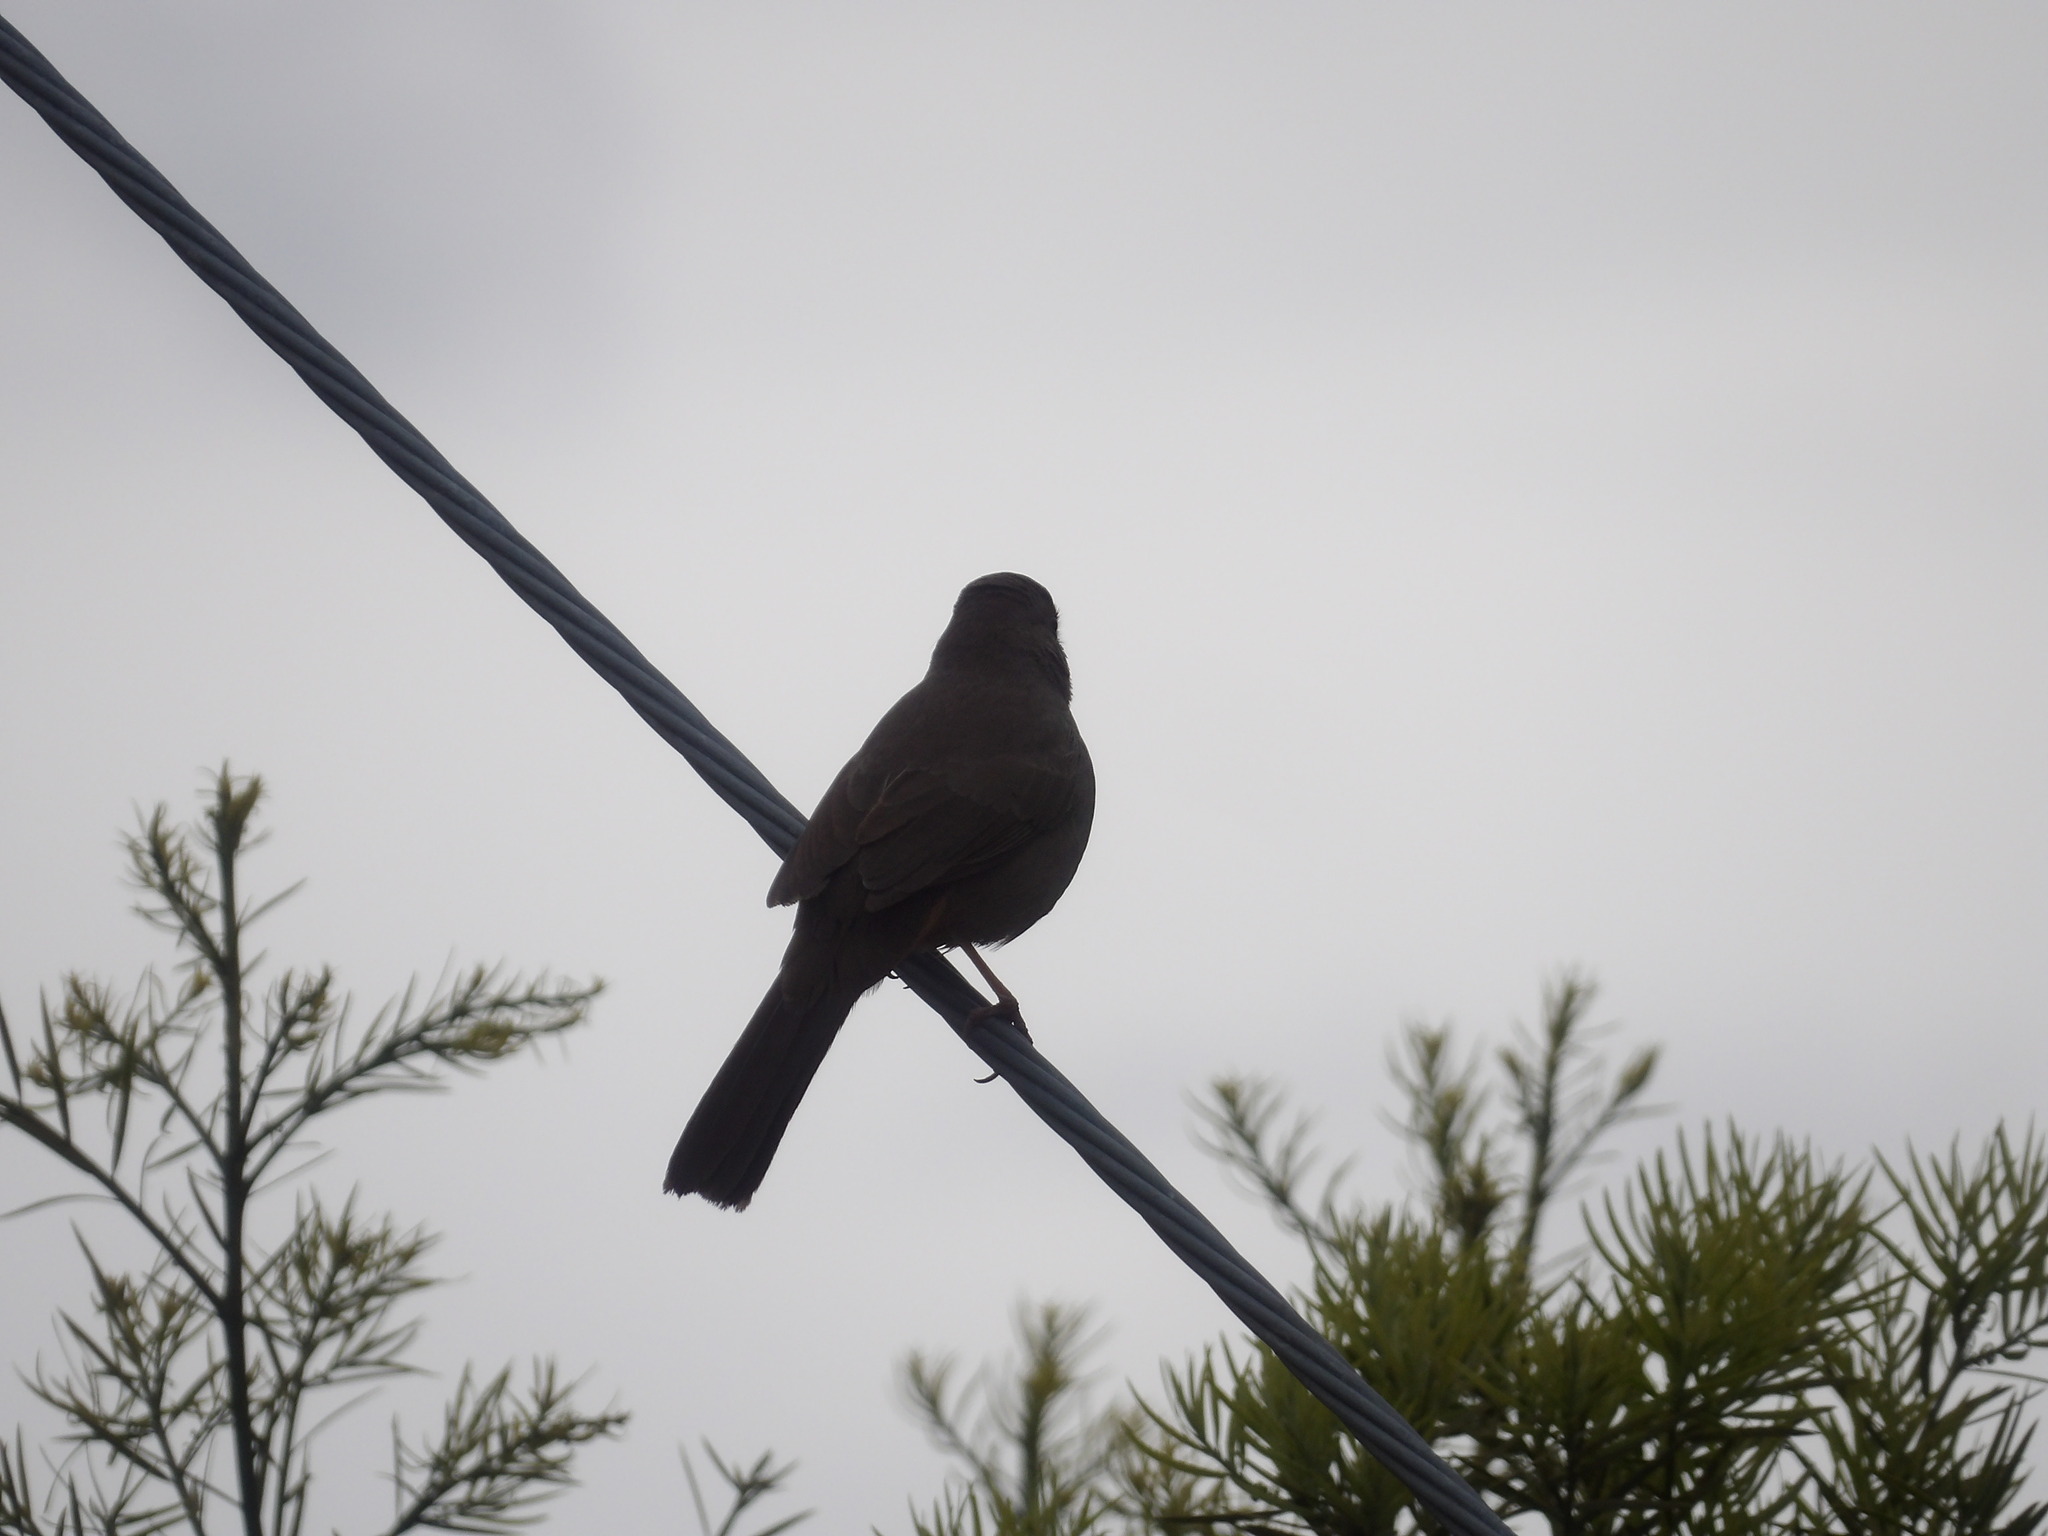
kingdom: Animalia
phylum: Chordata
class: Aves
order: Passeriformes
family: Passerellidae
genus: Melozone
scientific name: Melozone crissalis
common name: California towhee
